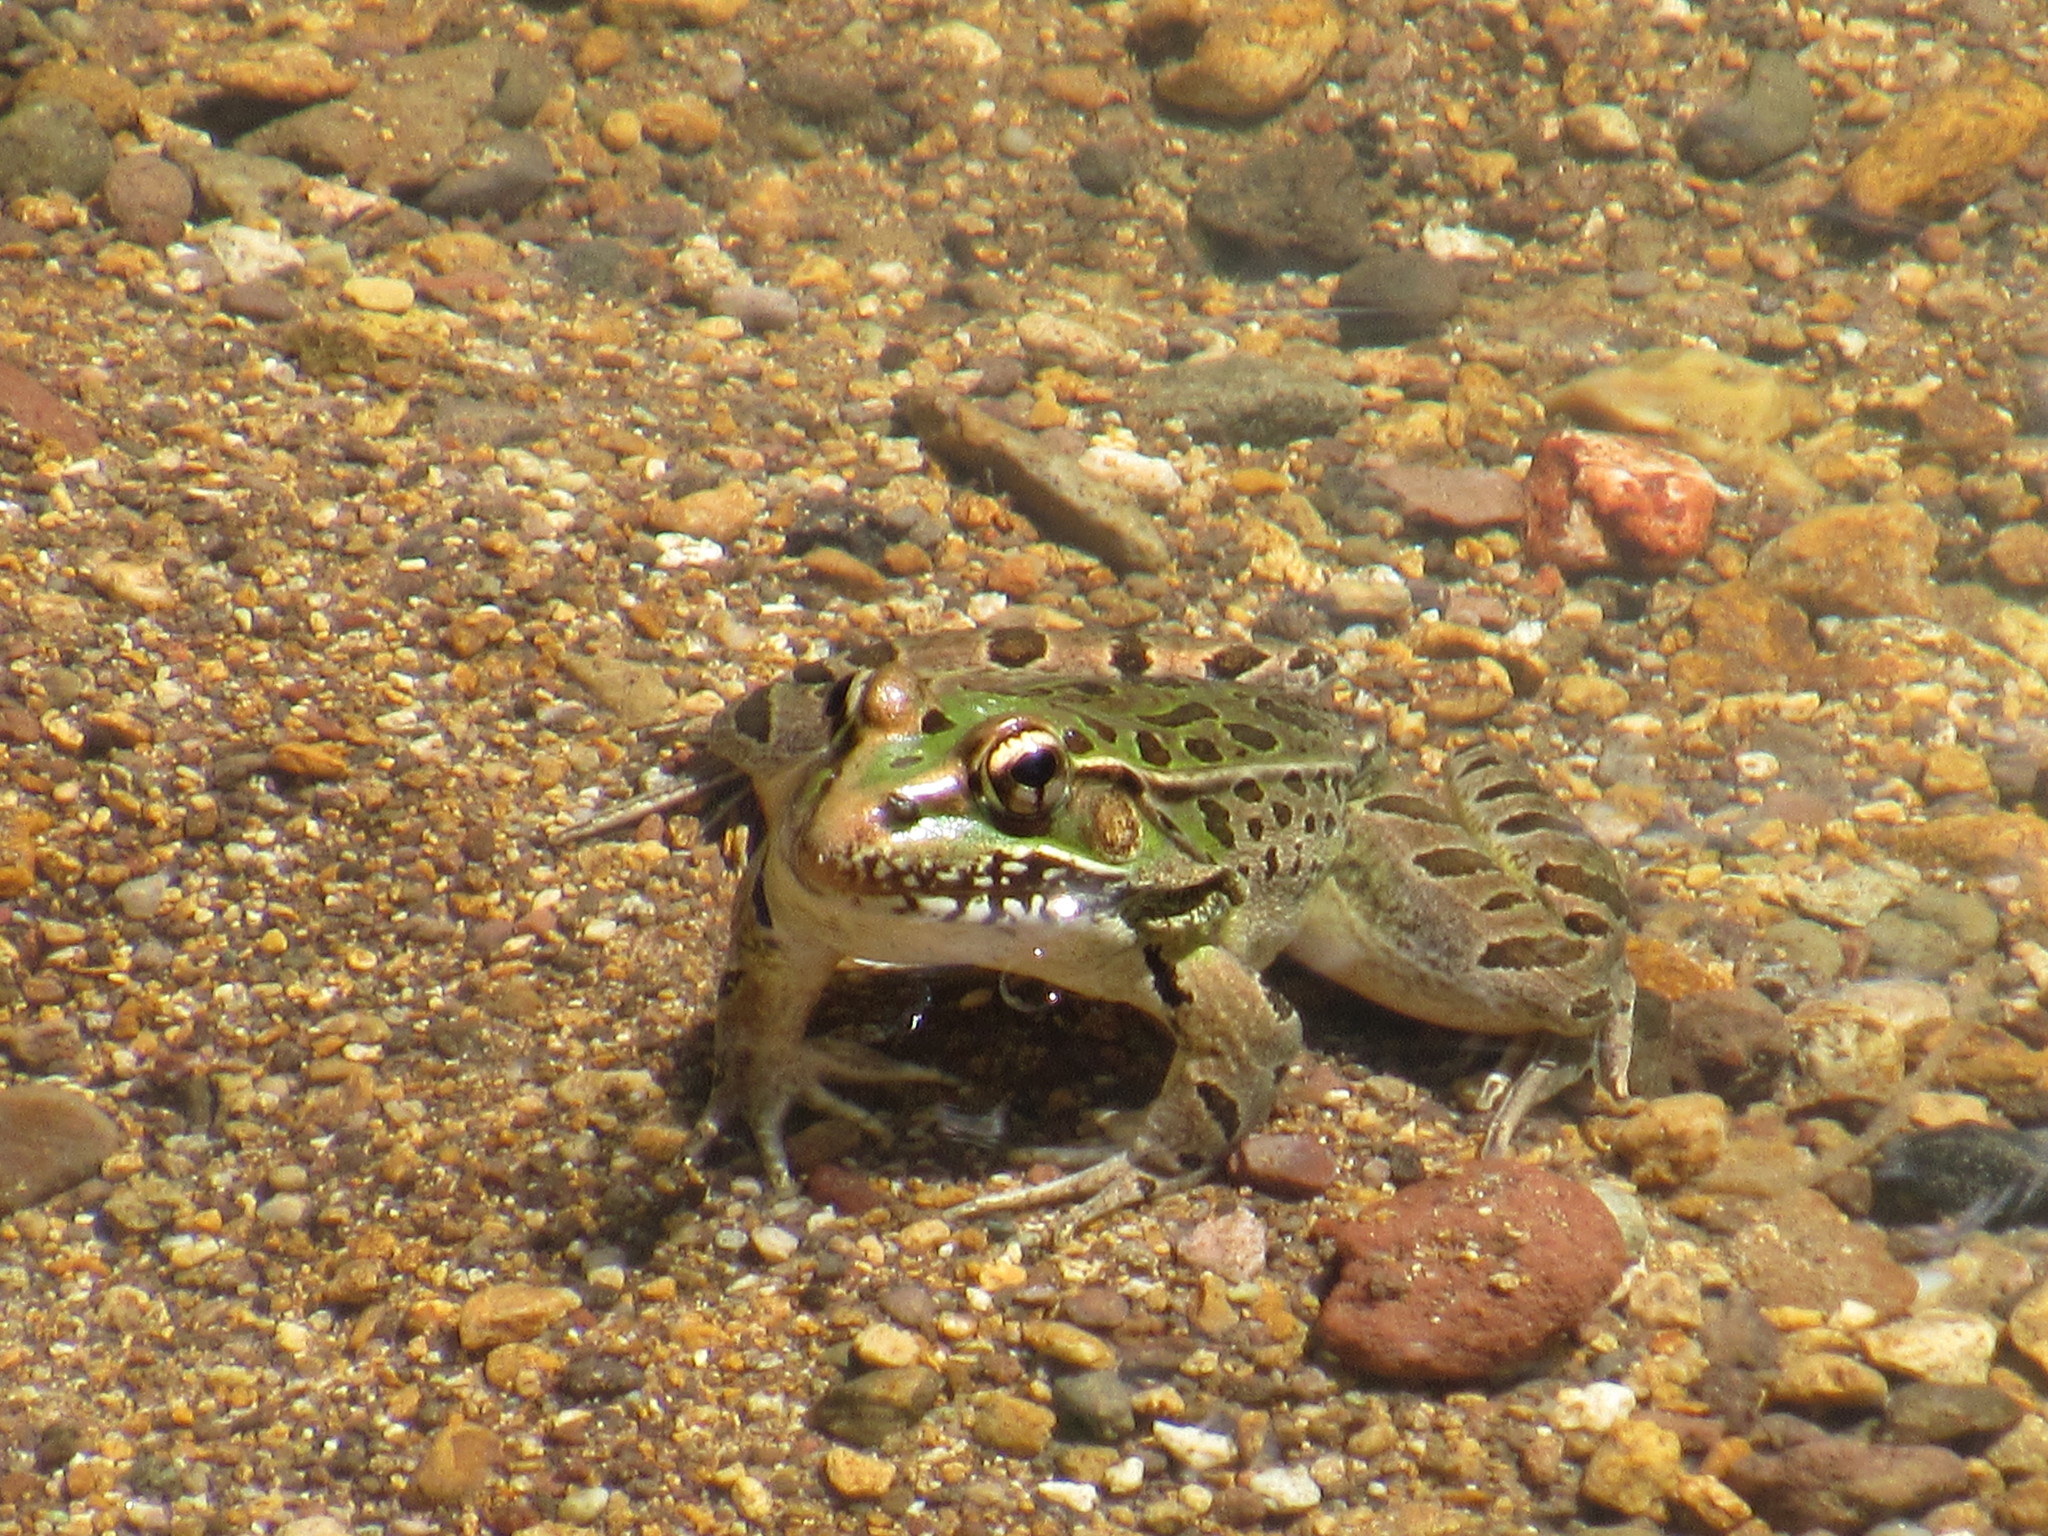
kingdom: Animalia
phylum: Chordata
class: Amphibia
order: Anura
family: Ranidae
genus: Lithobates
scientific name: Lithobates neovolcanicus
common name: Transverse volcanic leopard frog
